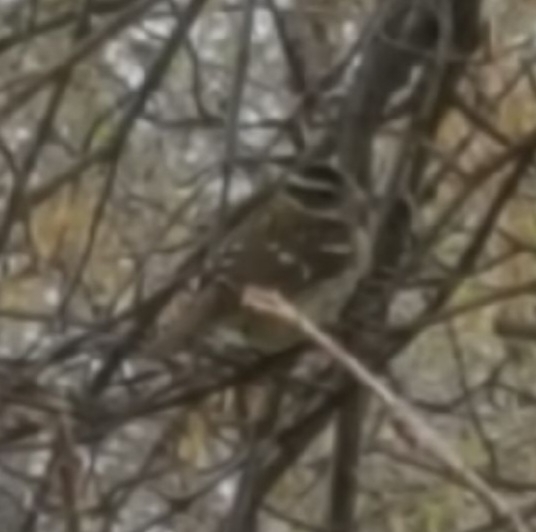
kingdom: Animalia
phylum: Chordata
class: Aves
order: Passeriformes
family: Cardinalidae
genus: Pheucticus
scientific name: Pheucticus ludovicianus
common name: Rose-breasted grosbeak
